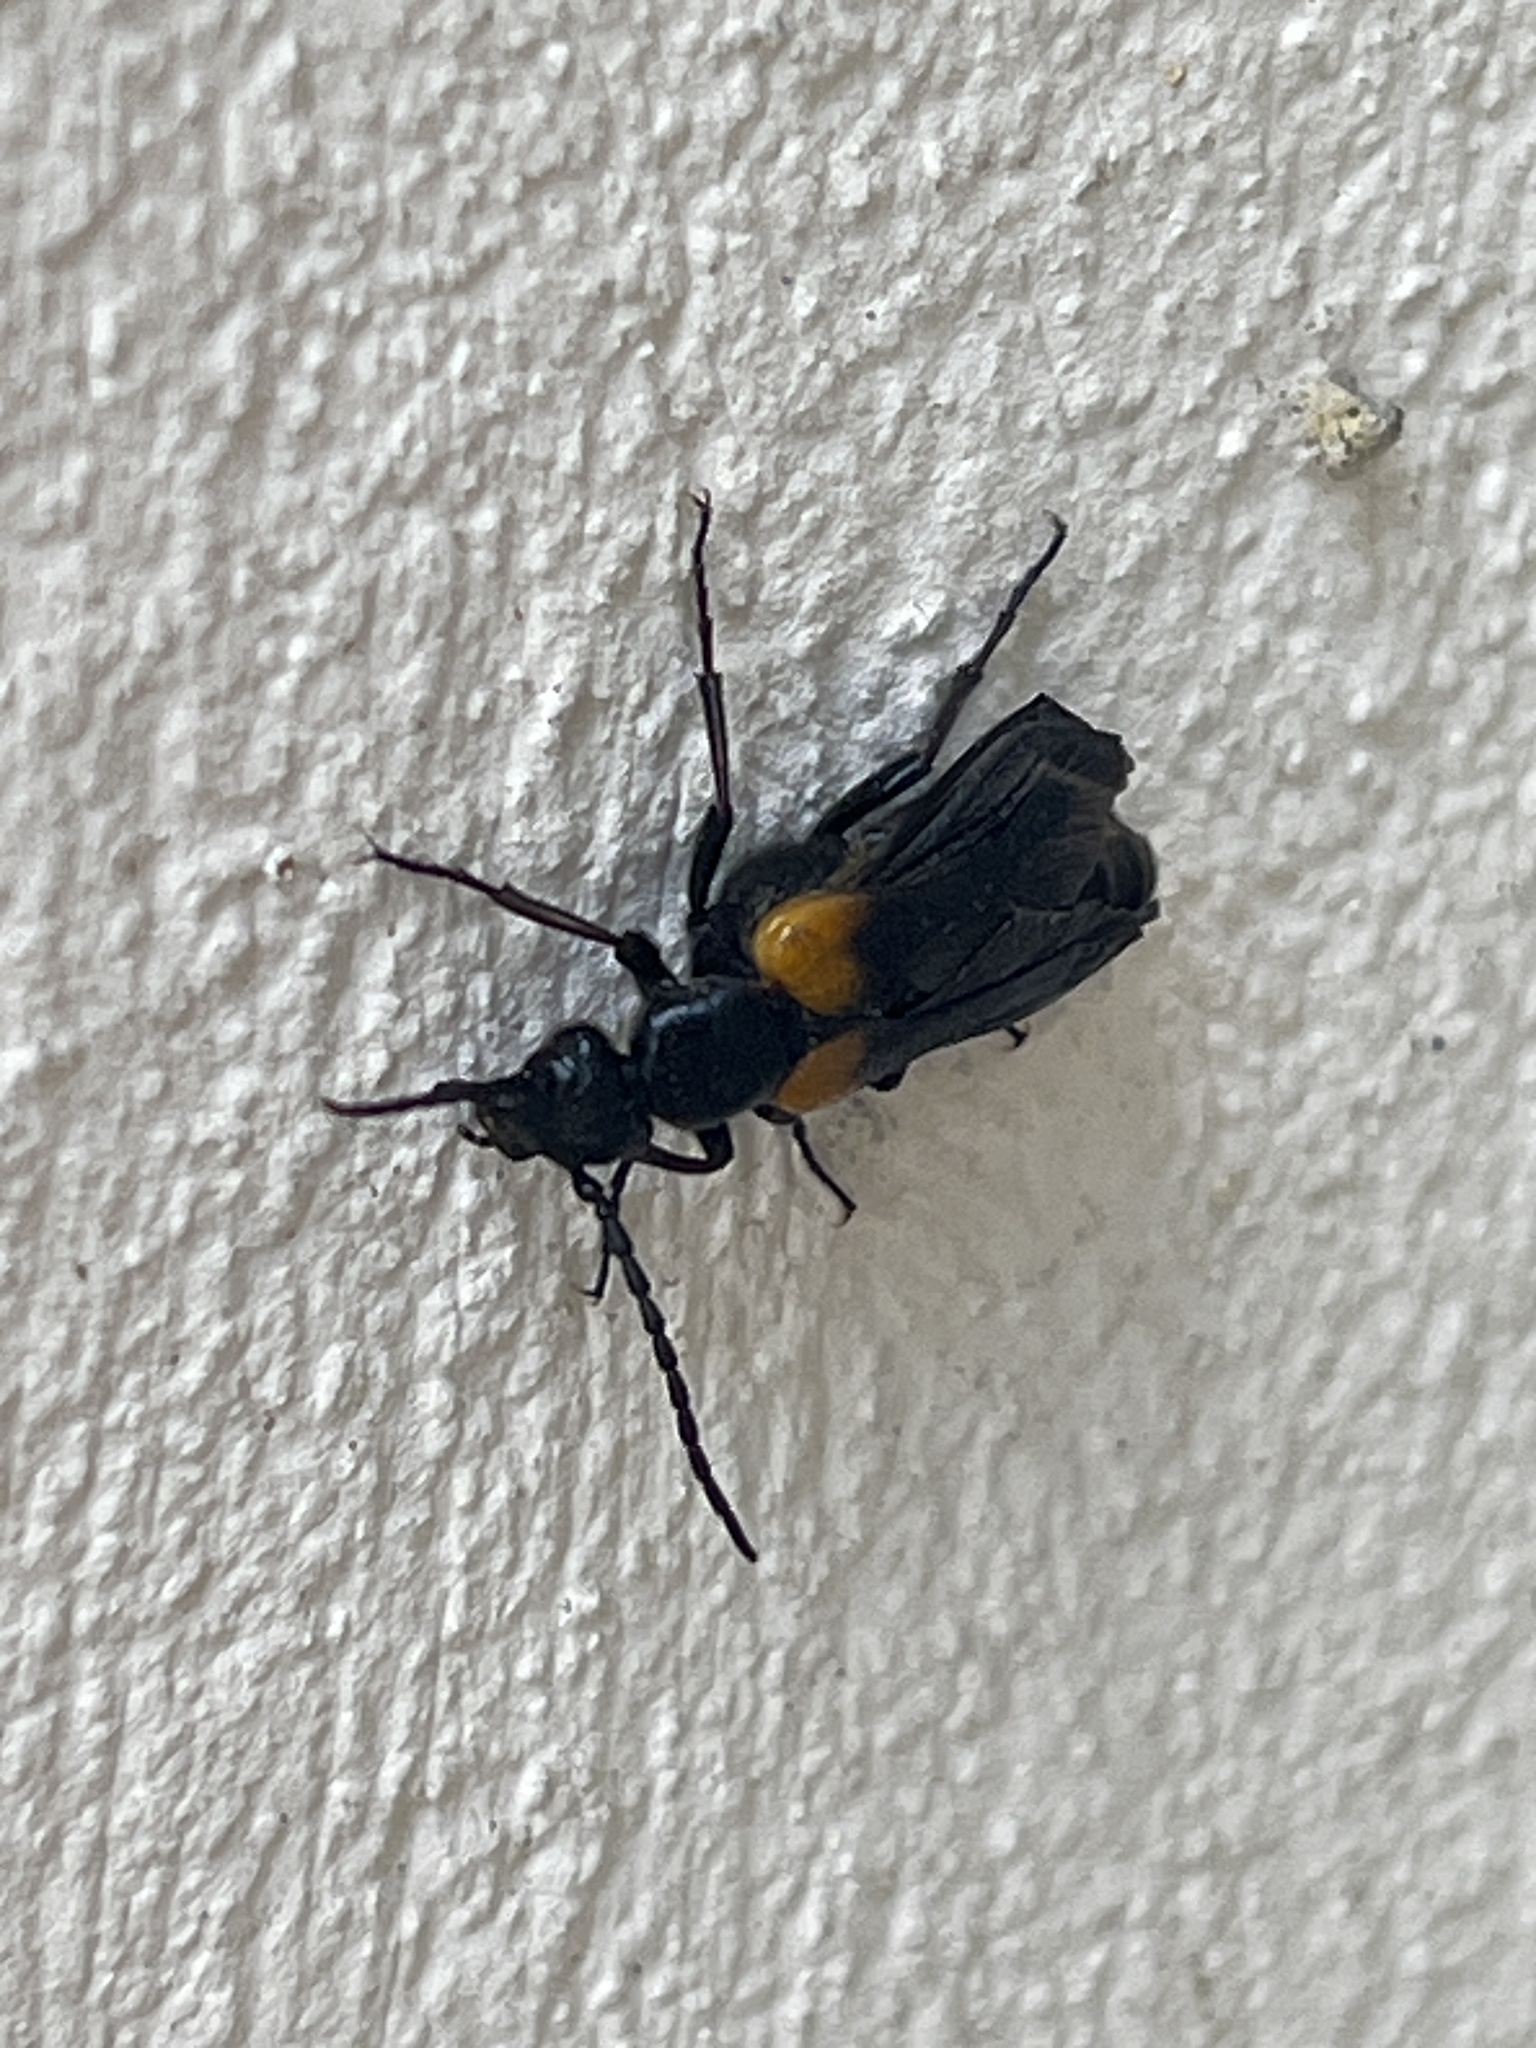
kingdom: Animalia
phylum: Arthropoda
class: Insecta
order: Coleoptera
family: Meloidae
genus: Sitaris
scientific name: Sitaris muralis
